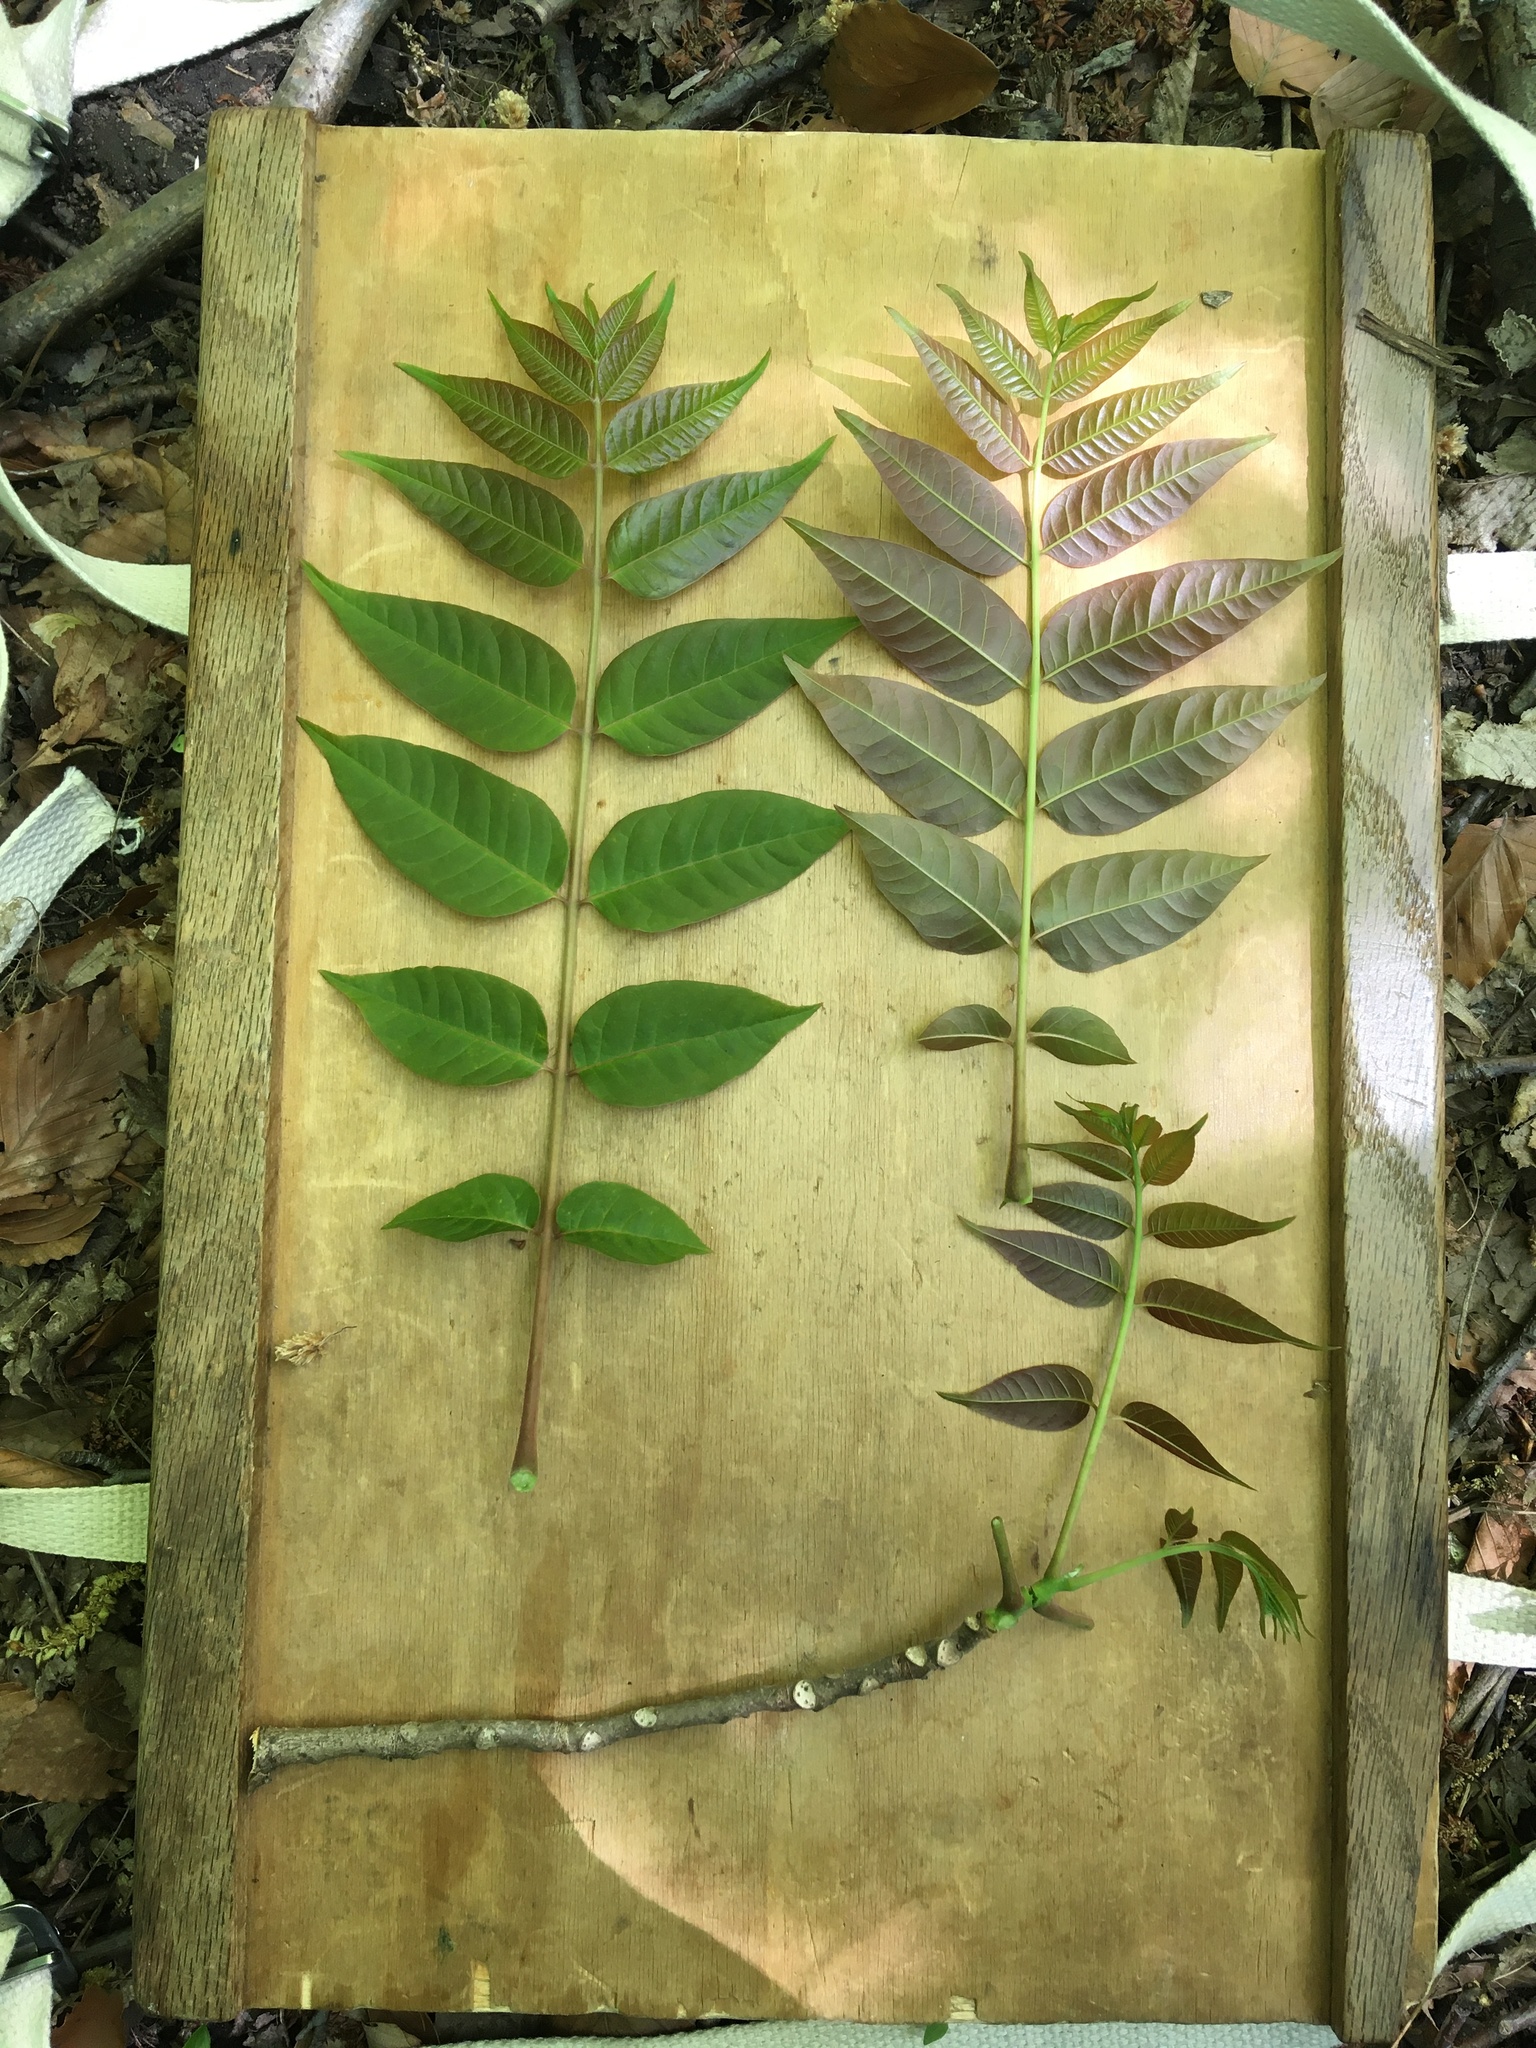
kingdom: Plantae
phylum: Tracheophyta
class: Magnoliopsida
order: Sapindales
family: Meliaceae
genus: Toona
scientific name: Toona sinensis
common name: Red toon
